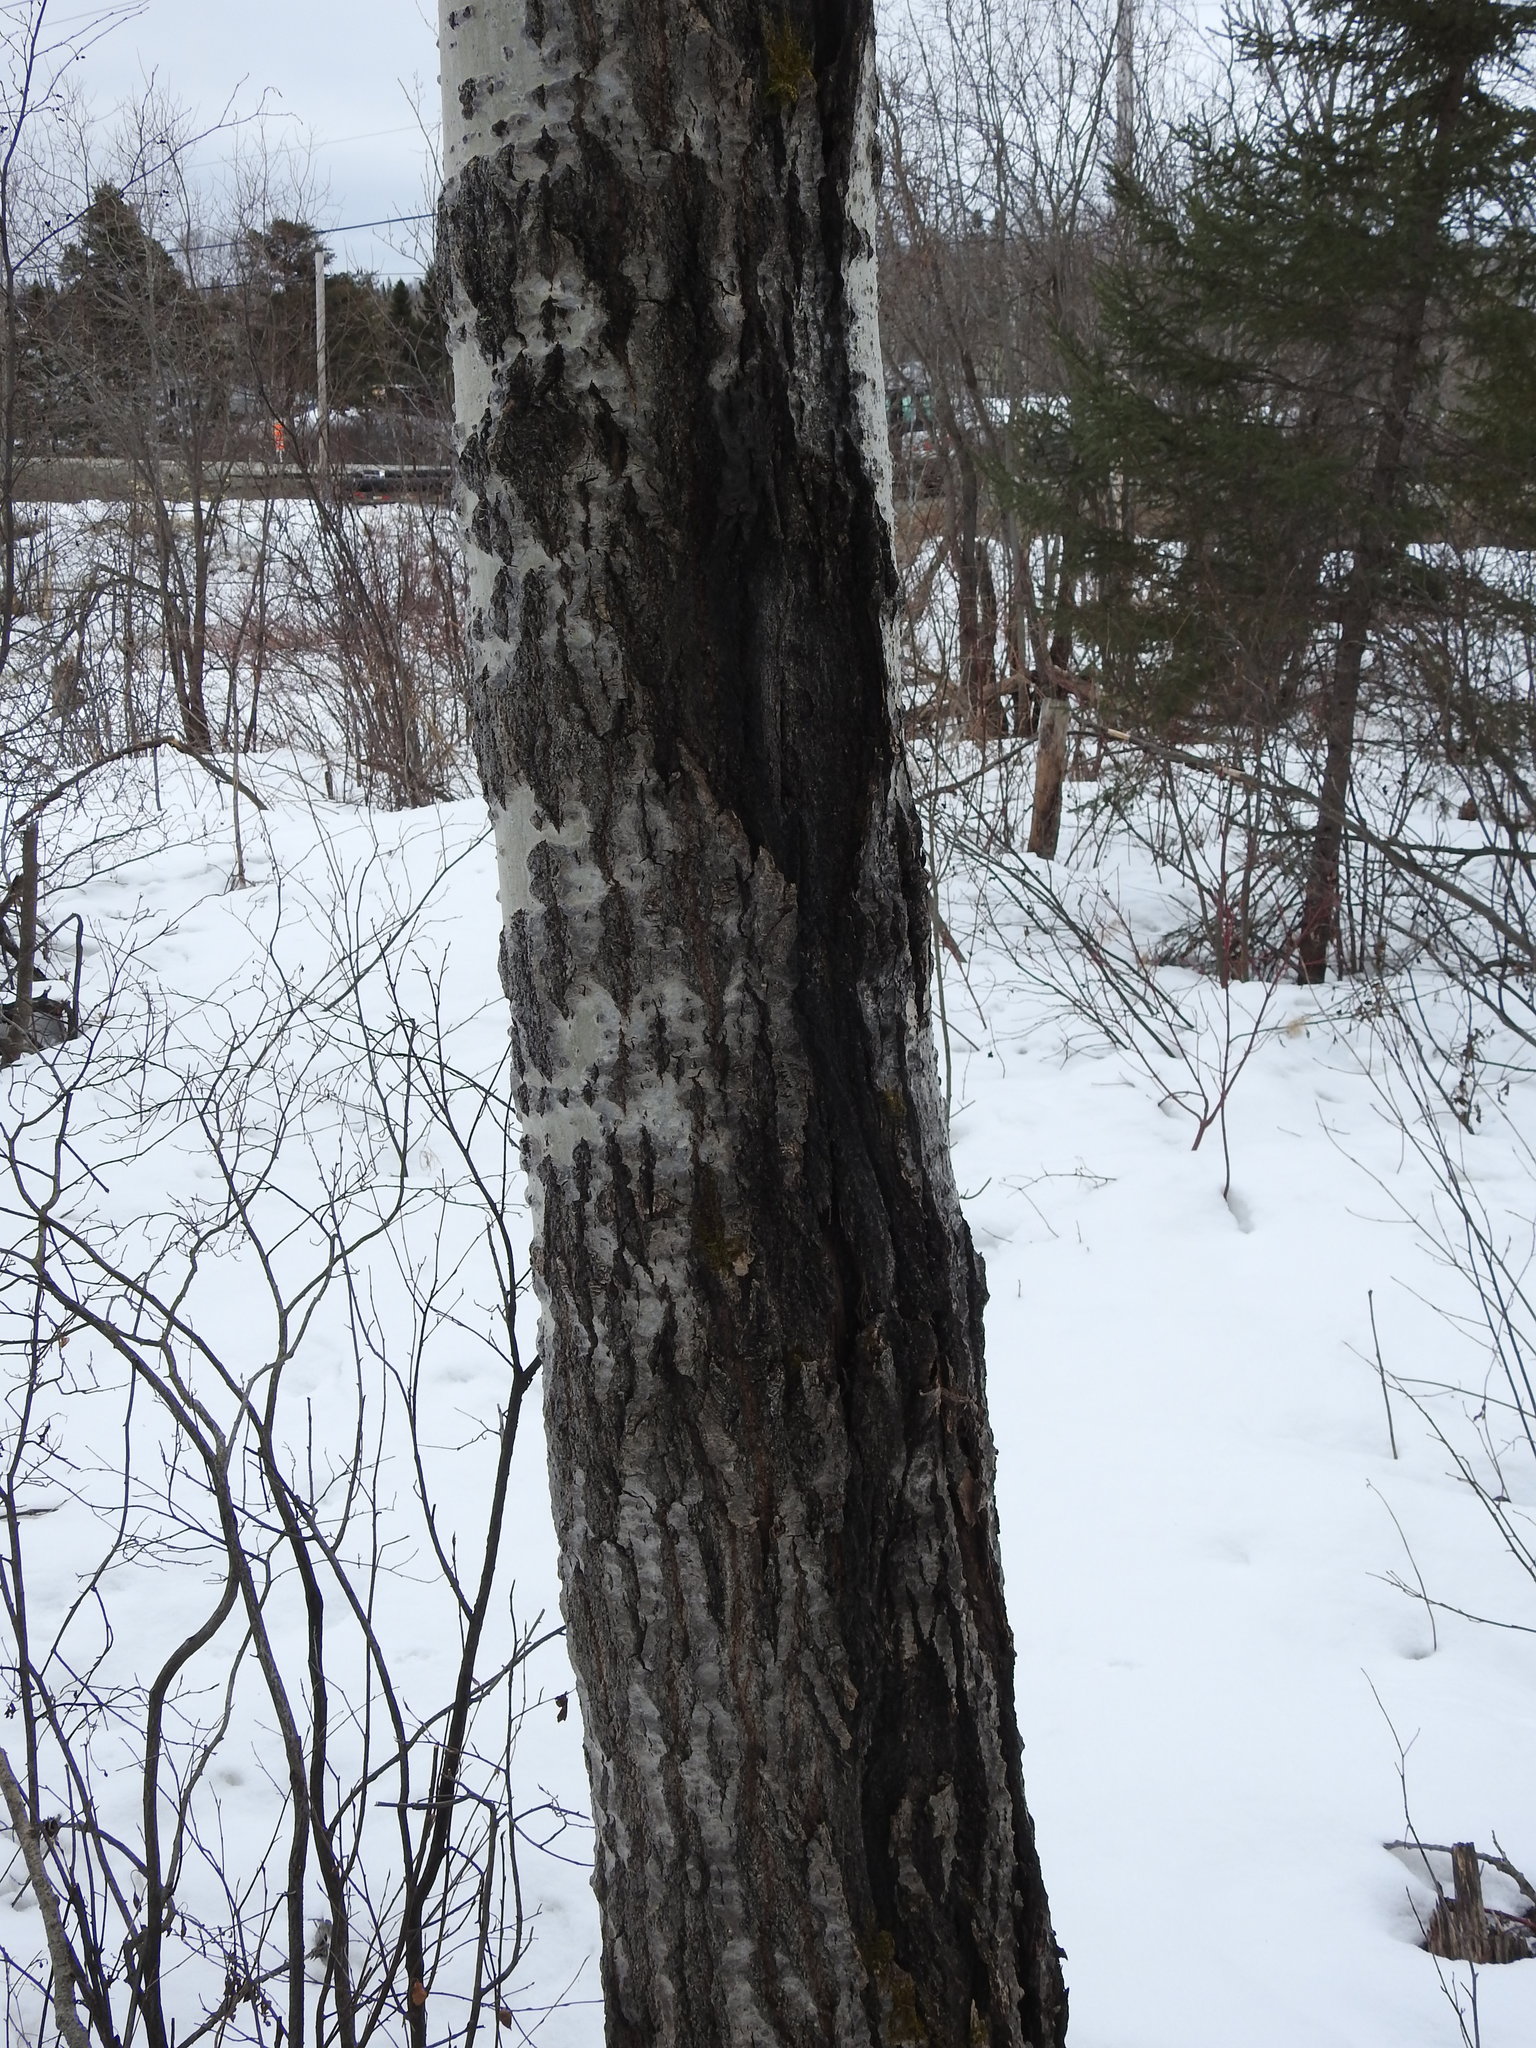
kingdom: Plantae
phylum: Tracheophyta
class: Magnoliopsida
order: Malpighiales
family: Salicaceae
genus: Populus
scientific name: Populus tremuloides
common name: Quaking aspen
